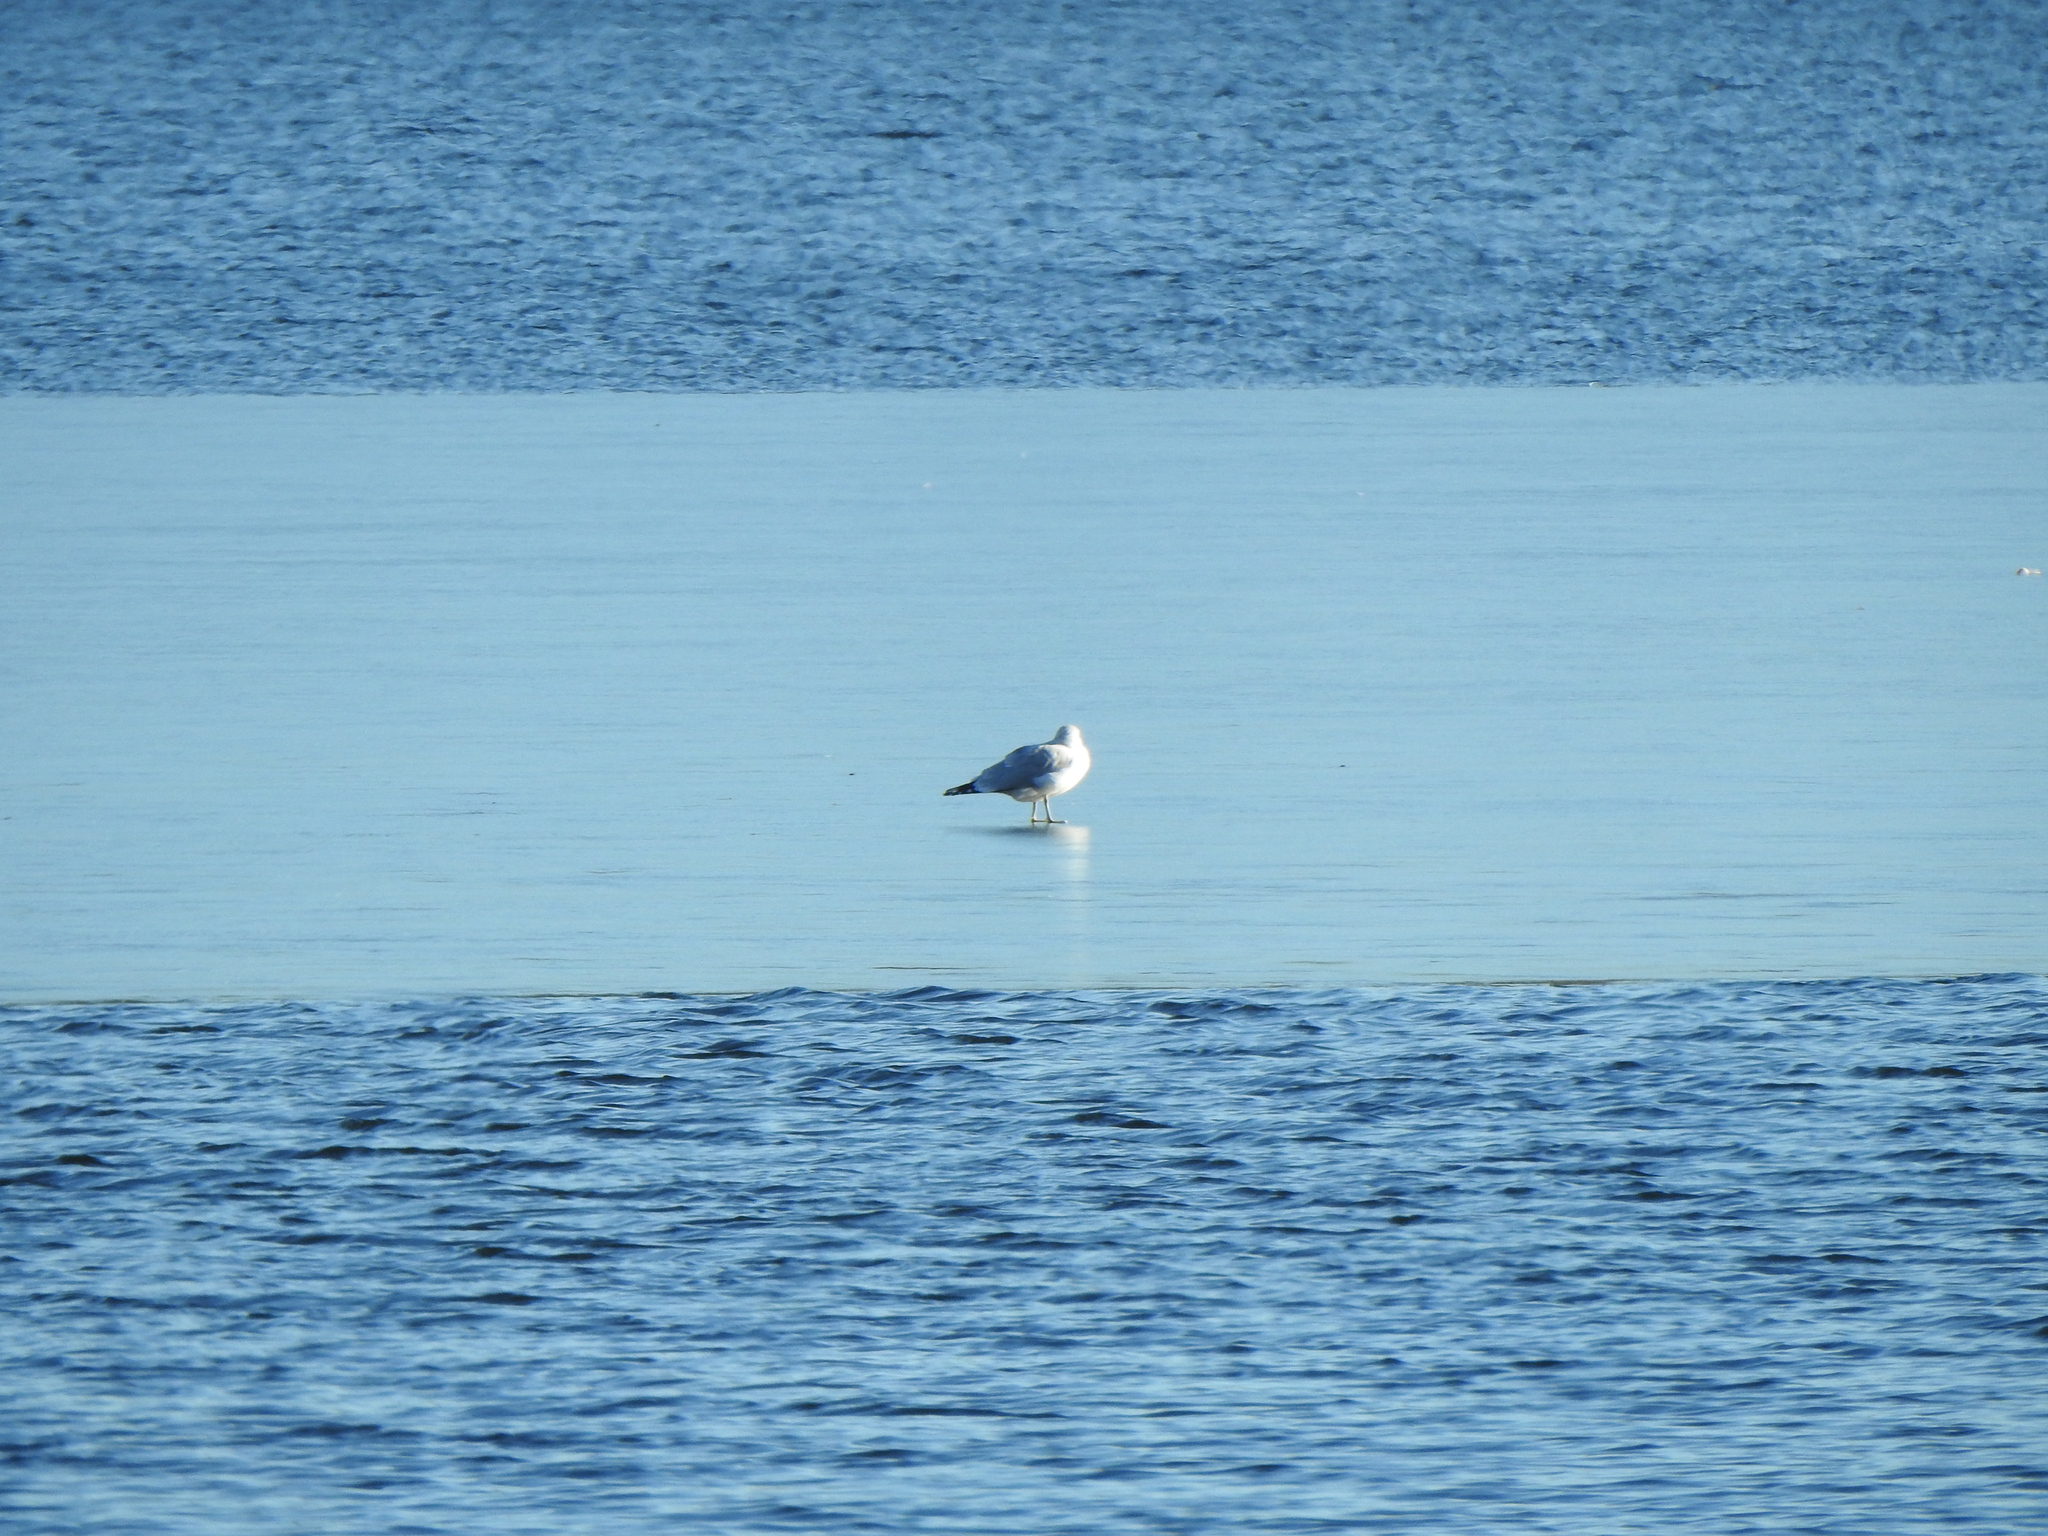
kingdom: Animalia
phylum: Chordata
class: Aves
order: Charadriiformes
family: Laridae
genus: Larus
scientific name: Larus delawarensis
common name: Ring-billed gull
